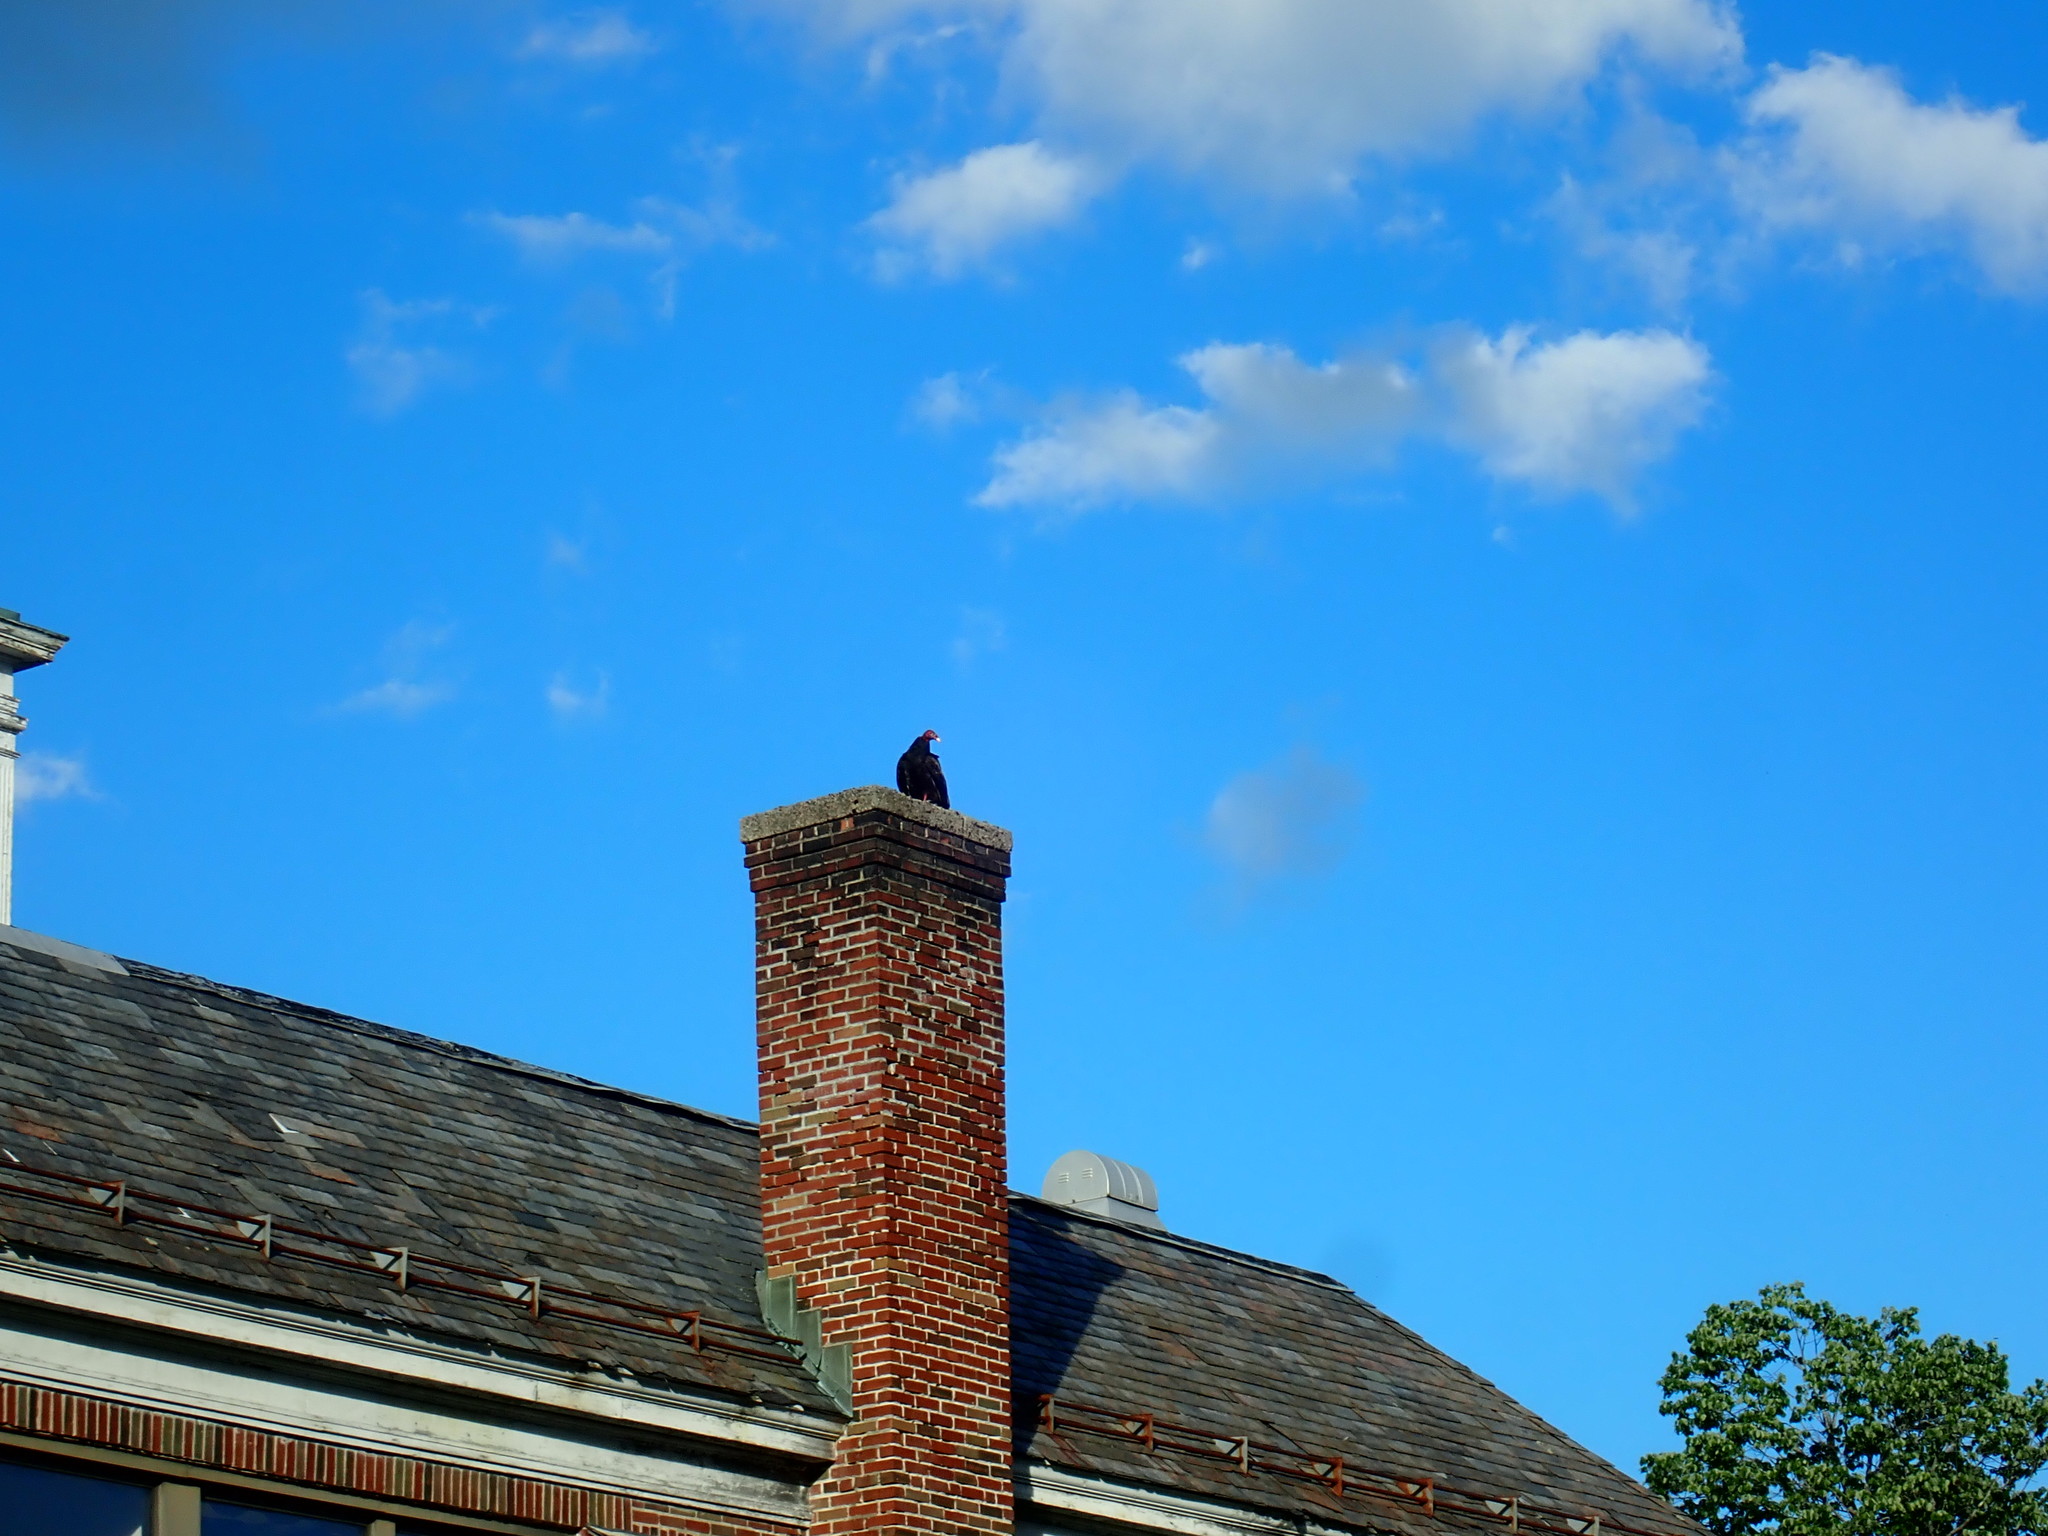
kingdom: Animalia
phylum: Chordata
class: Aves
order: Accipitriformes
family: Cathartidae
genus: Cathartes
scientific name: Cathartes aura
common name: Turkey vulture
